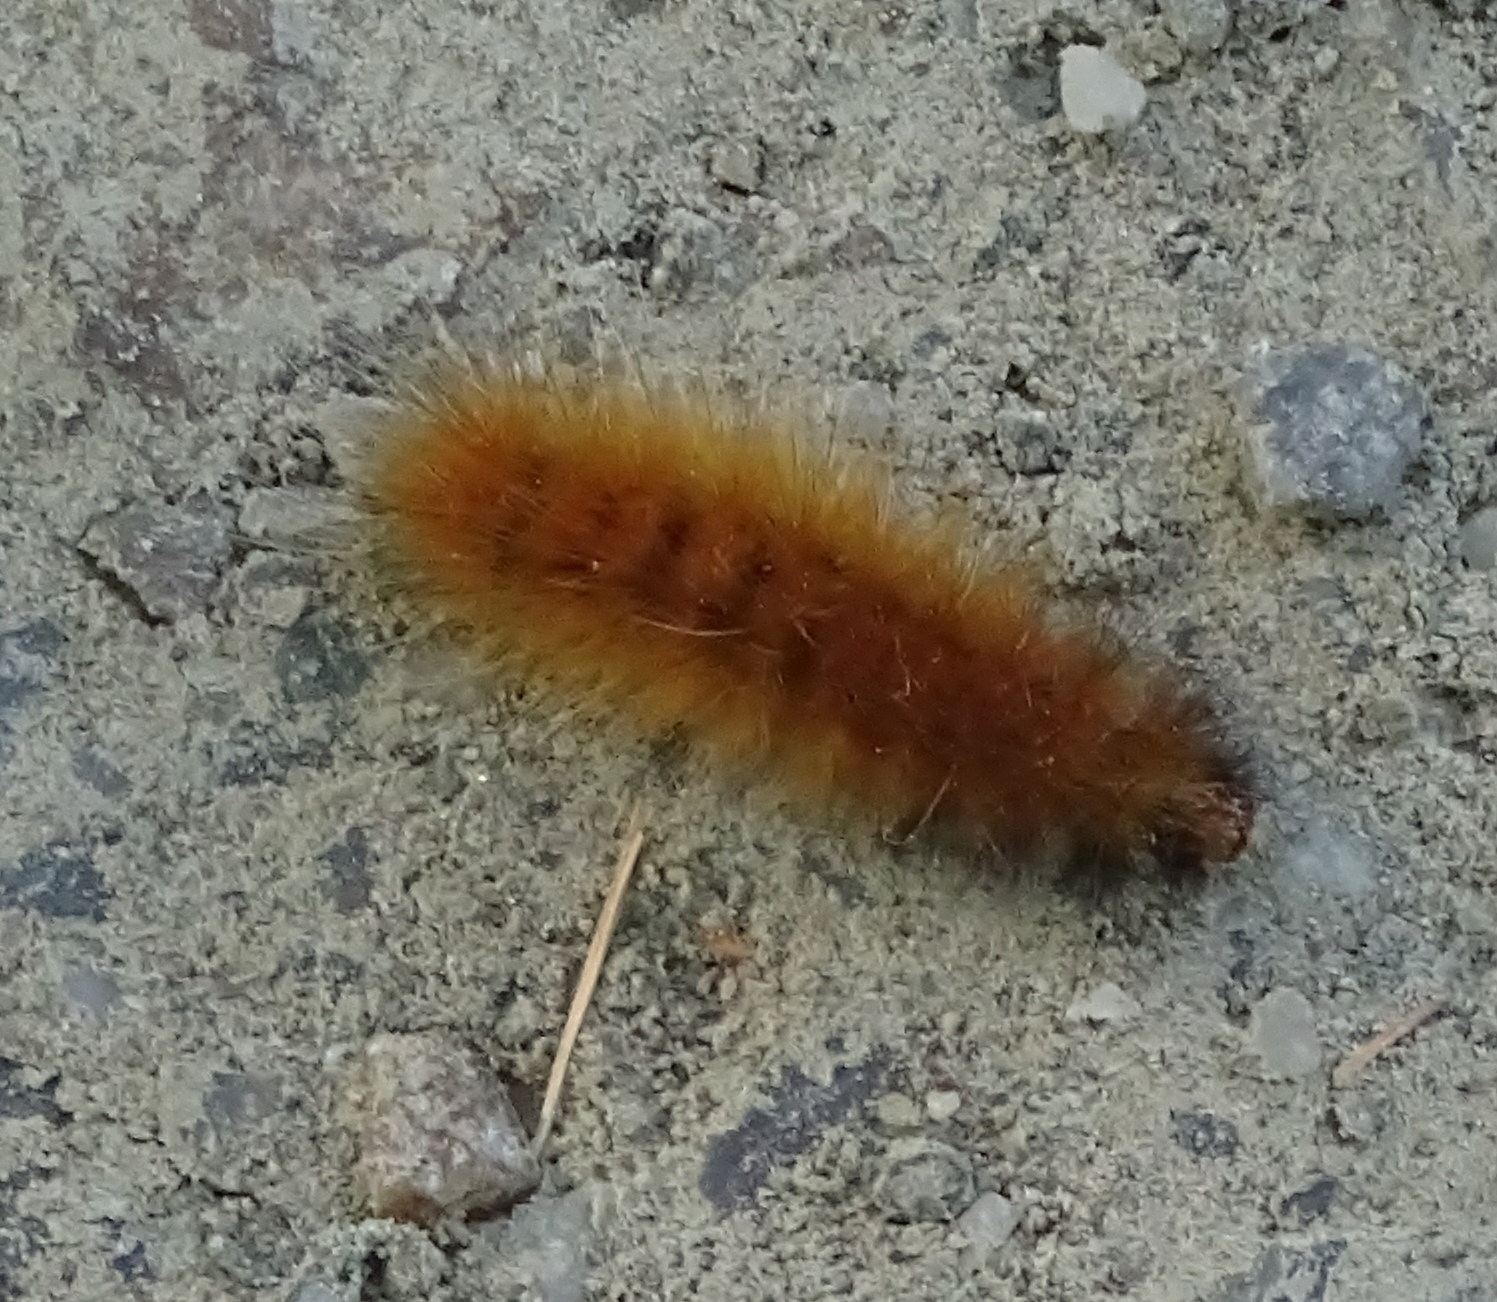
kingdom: Animalia
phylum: Arthropoda
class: Insecta
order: Lepidoptera
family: Erebidae
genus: Spilosoma
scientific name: Spilosoma virginica
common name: Virginia tiger moth
